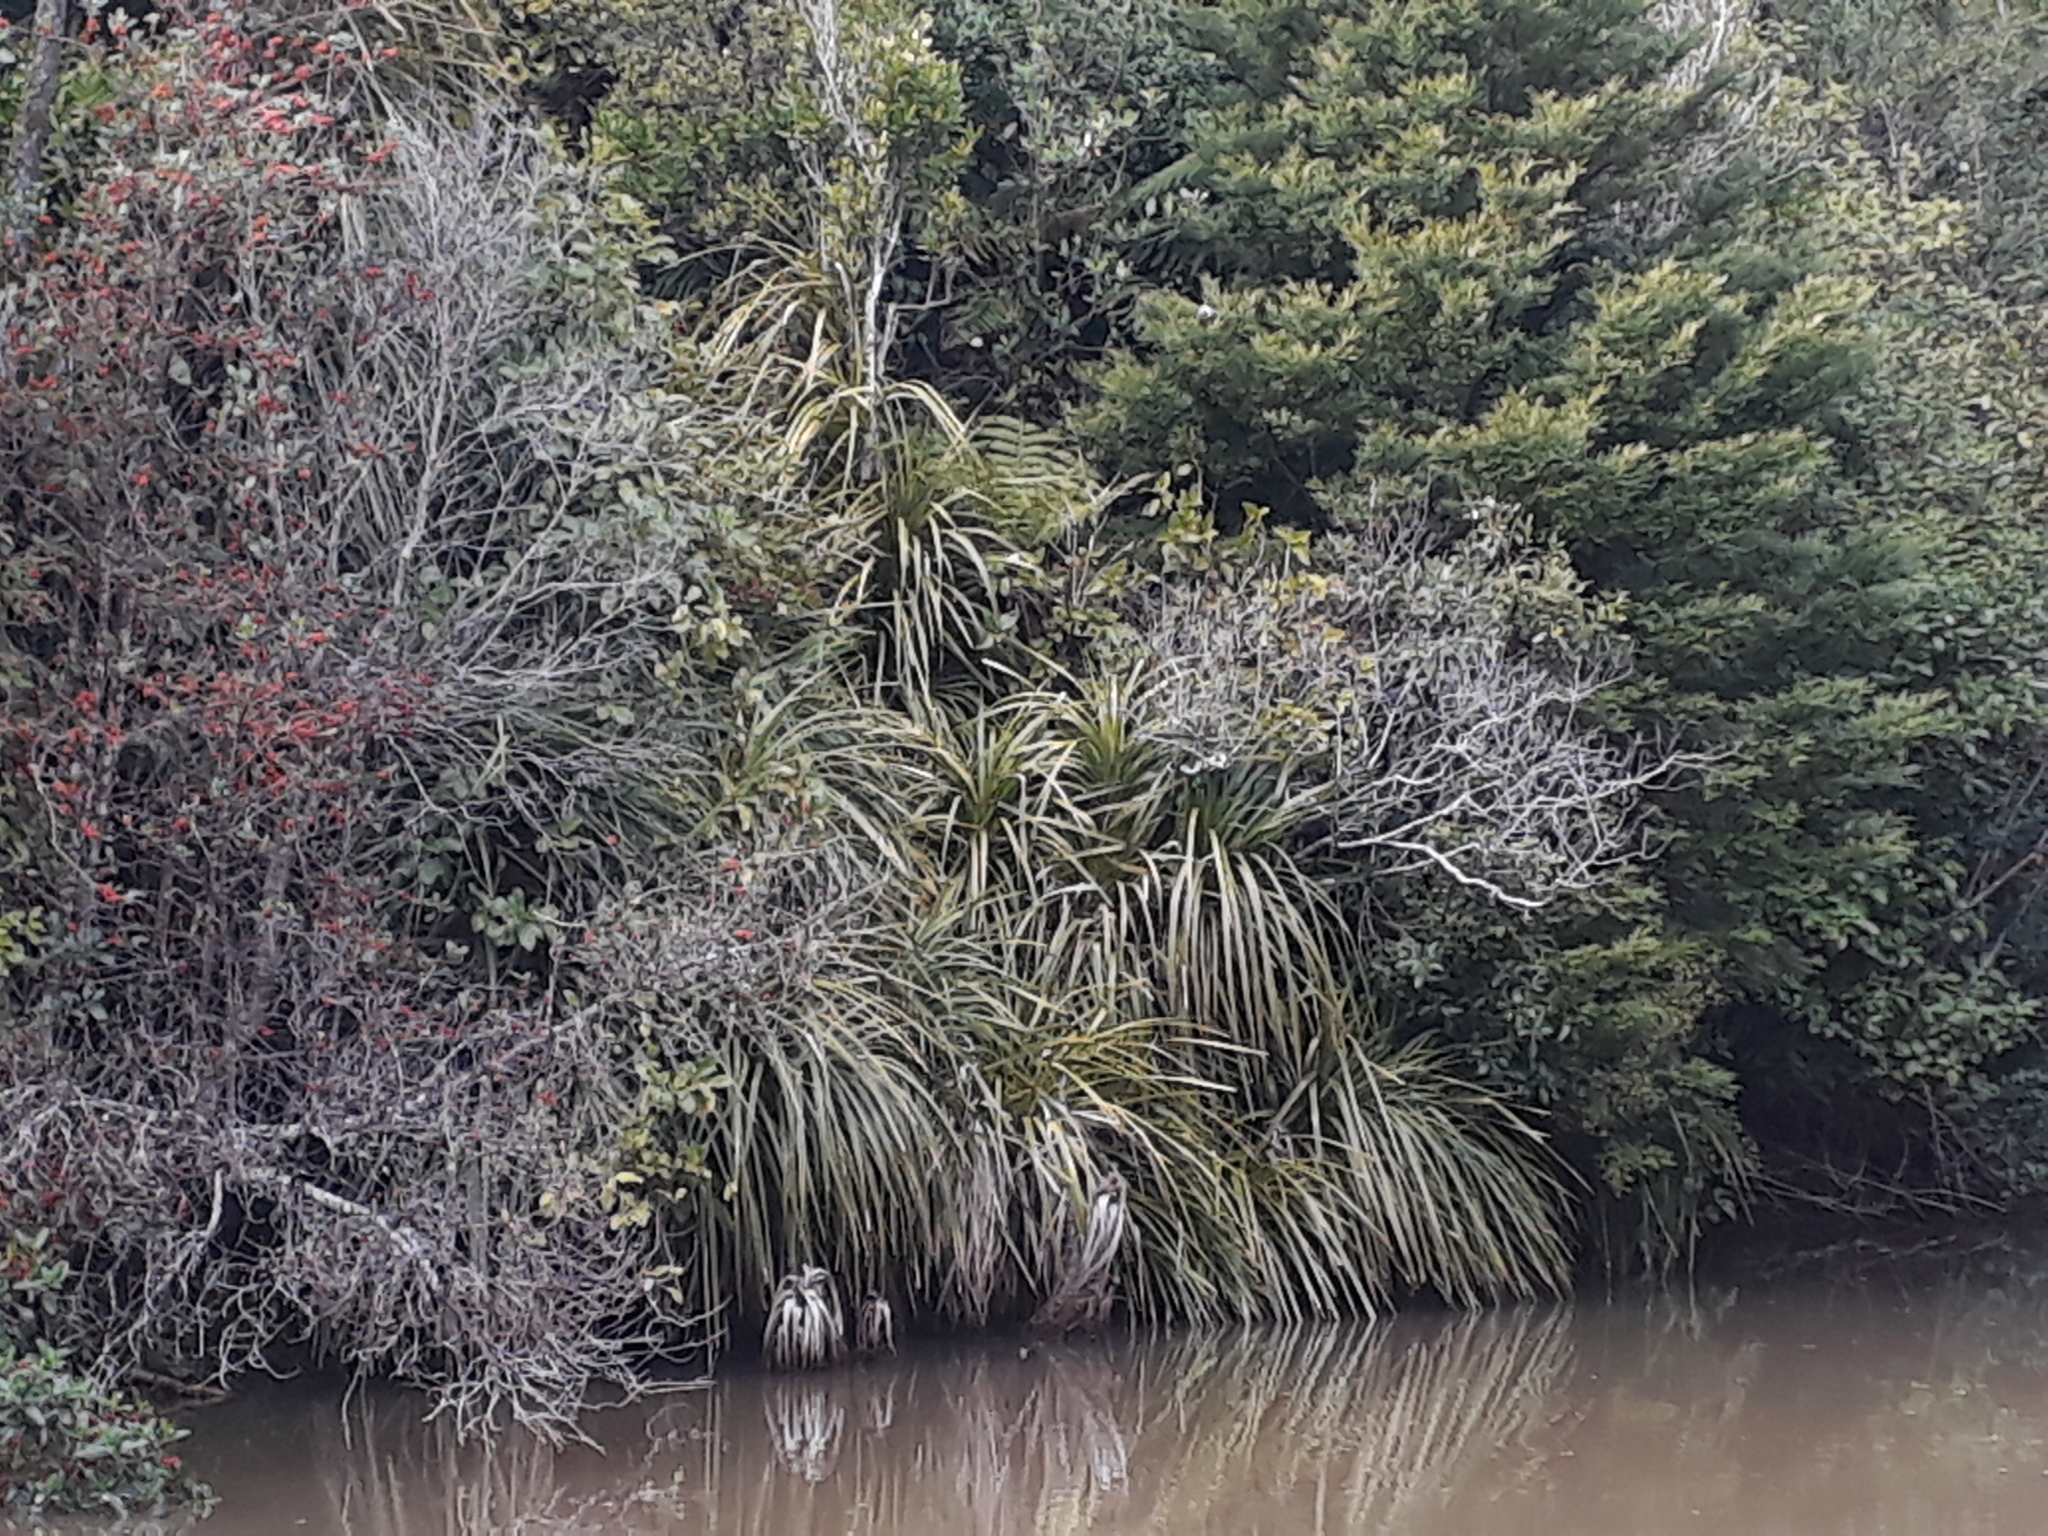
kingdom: Plantae
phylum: Tracheophyta
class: Liliopsida
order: Pandanales
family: Pandanaceae
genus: Freycinetia
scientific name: Freycinetia banksii
